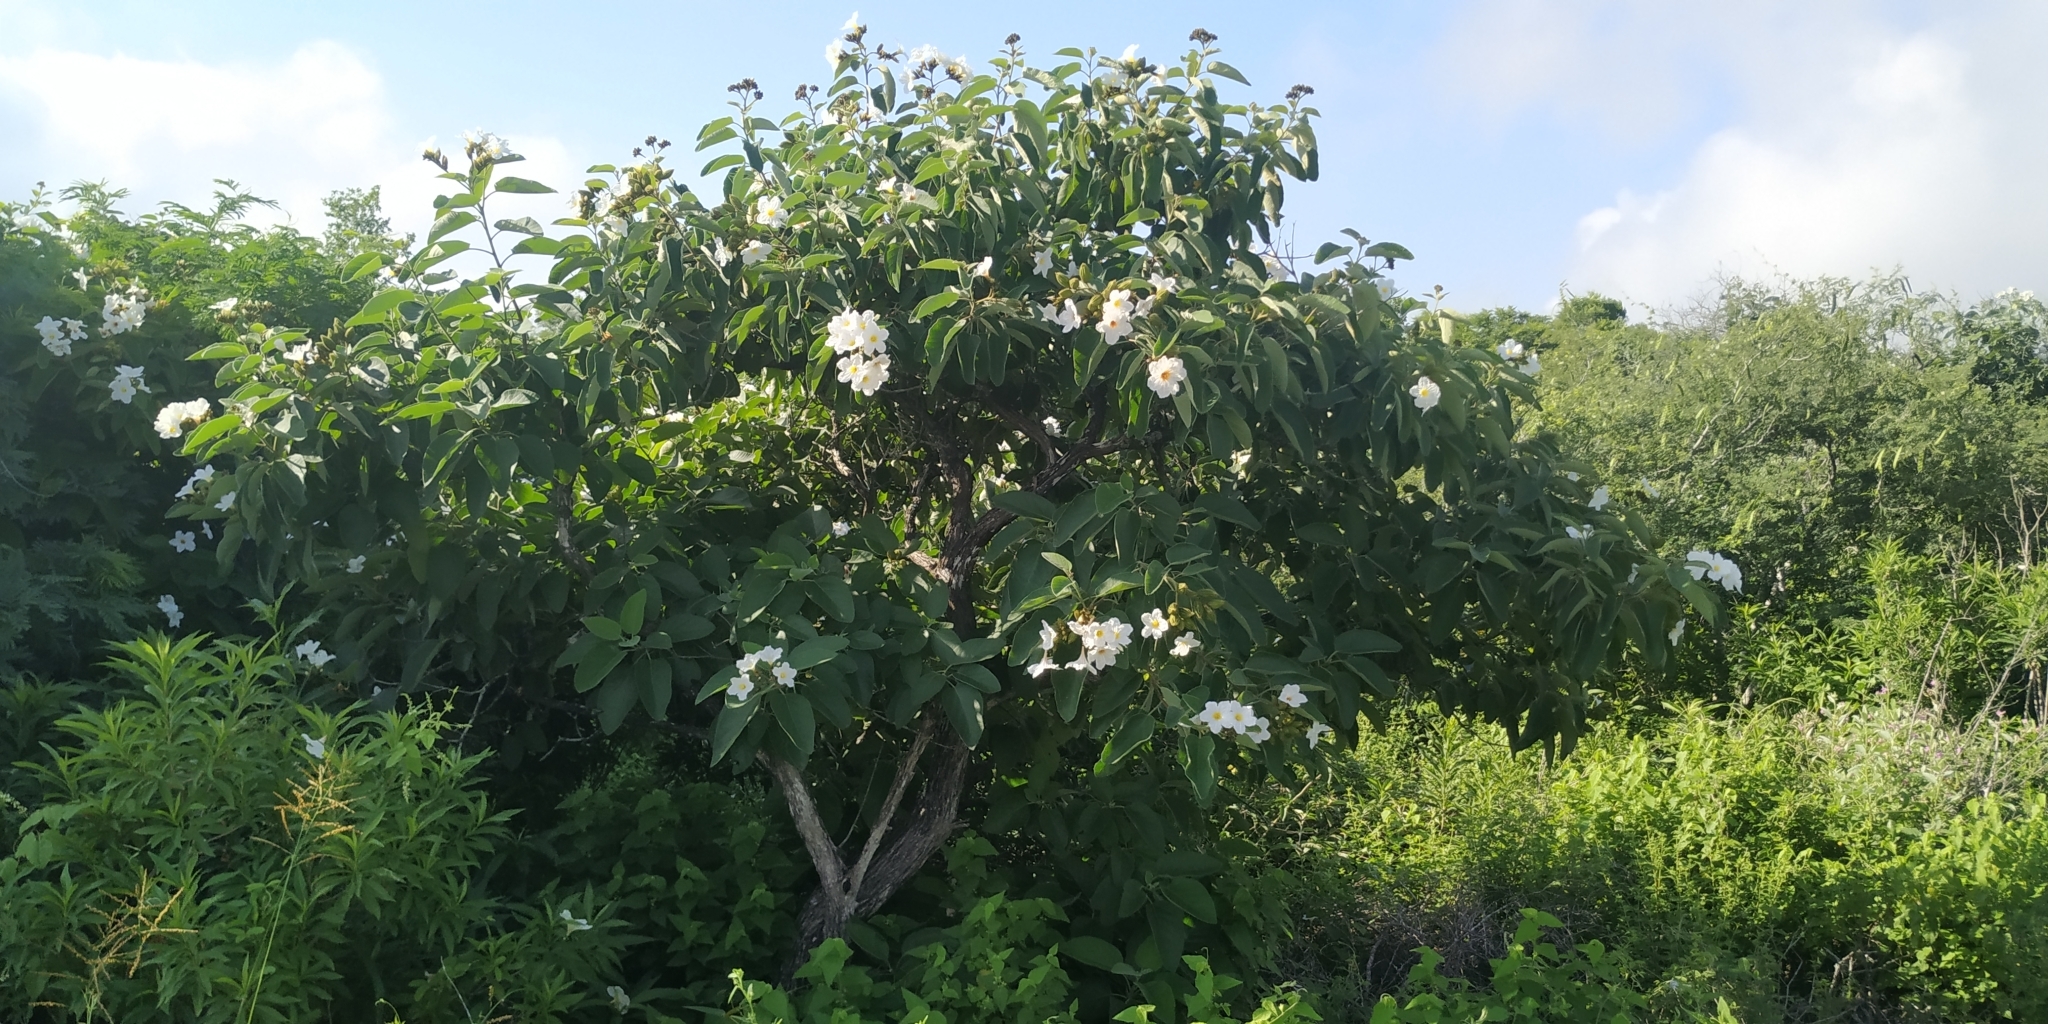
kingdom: Plantae
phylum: Tracheophyta
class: Magnoliopsida
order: Boraginales
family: Cordiaceae
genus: Cordia
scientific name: Cordia boissieri
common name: Mexican-olive
